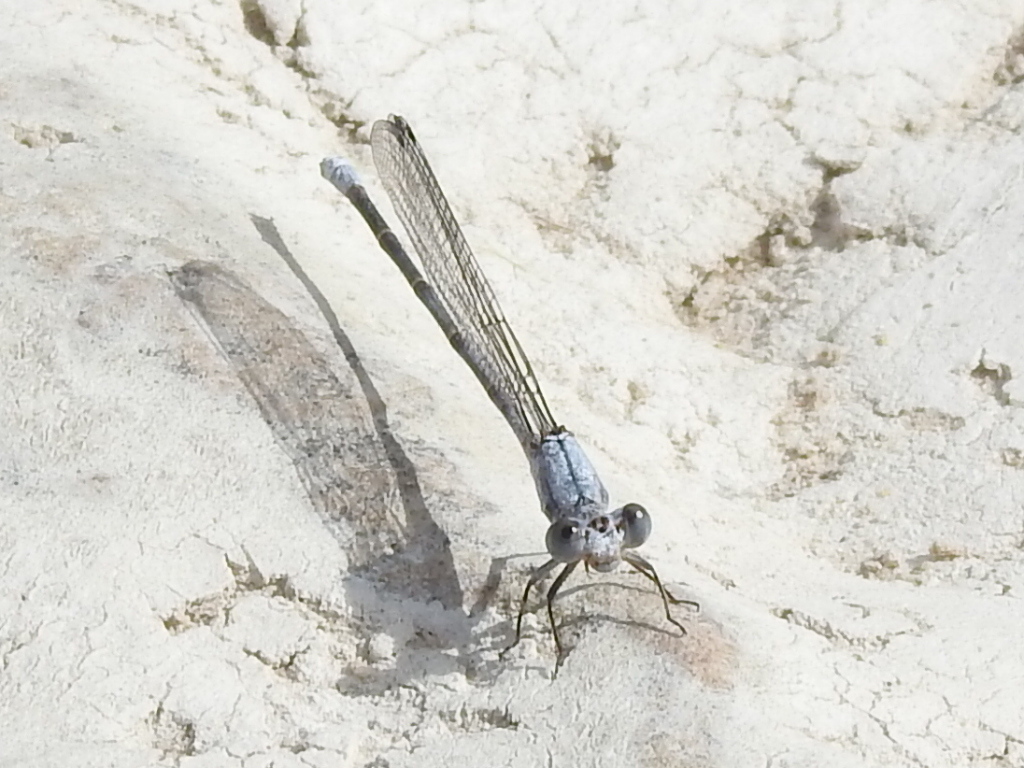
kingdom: Animalia
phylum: Arthropoda
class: Insecta
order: Odonata
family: Coenagrionidae
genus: Argia
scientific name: Argia moesta
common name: Powdered dancer
